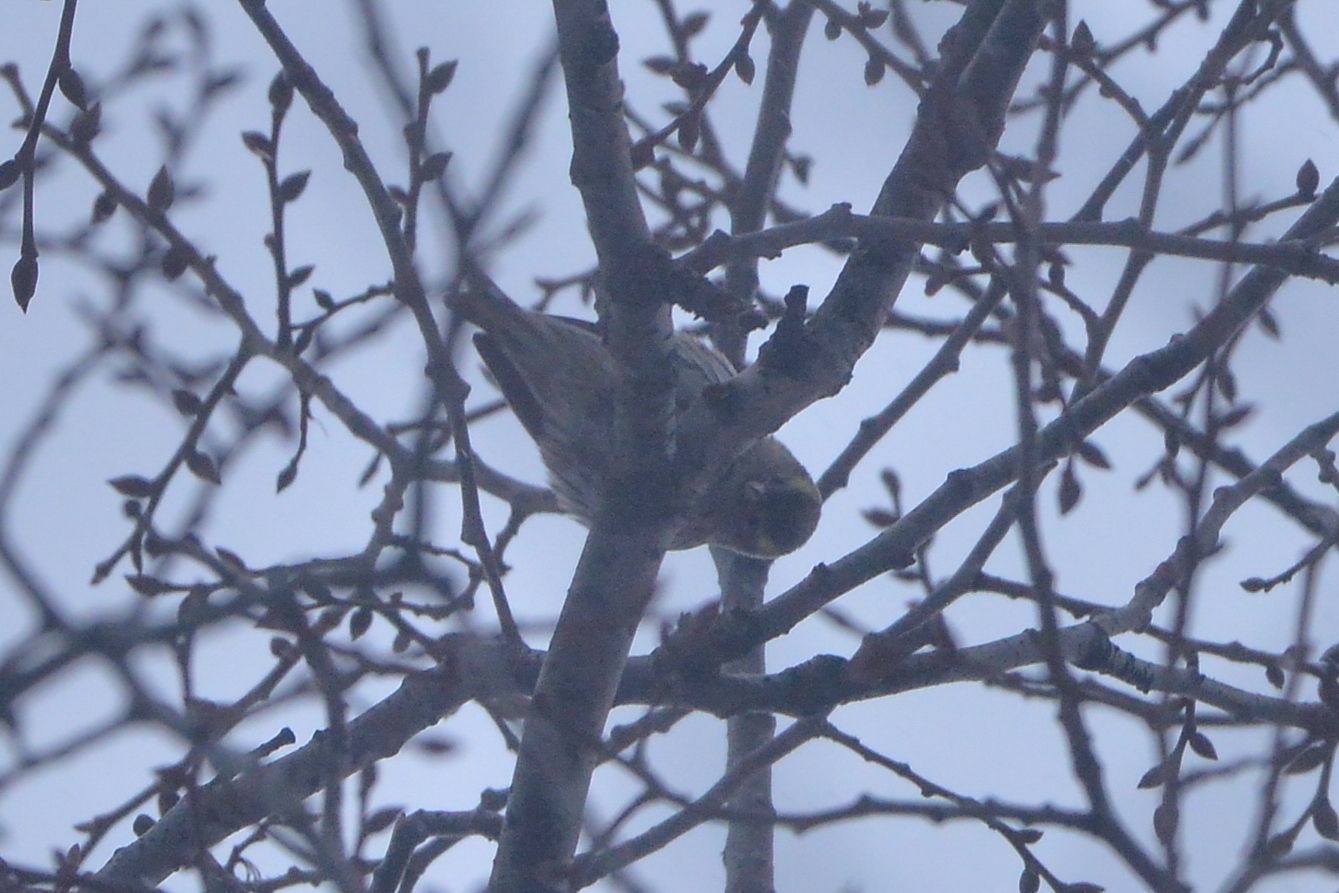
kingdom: Animalia
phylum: Chordata
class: Aves
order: Passeriformes
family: Fringillidae
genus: Spinus
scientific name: Spinus spinus
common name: Eurasian siskin
